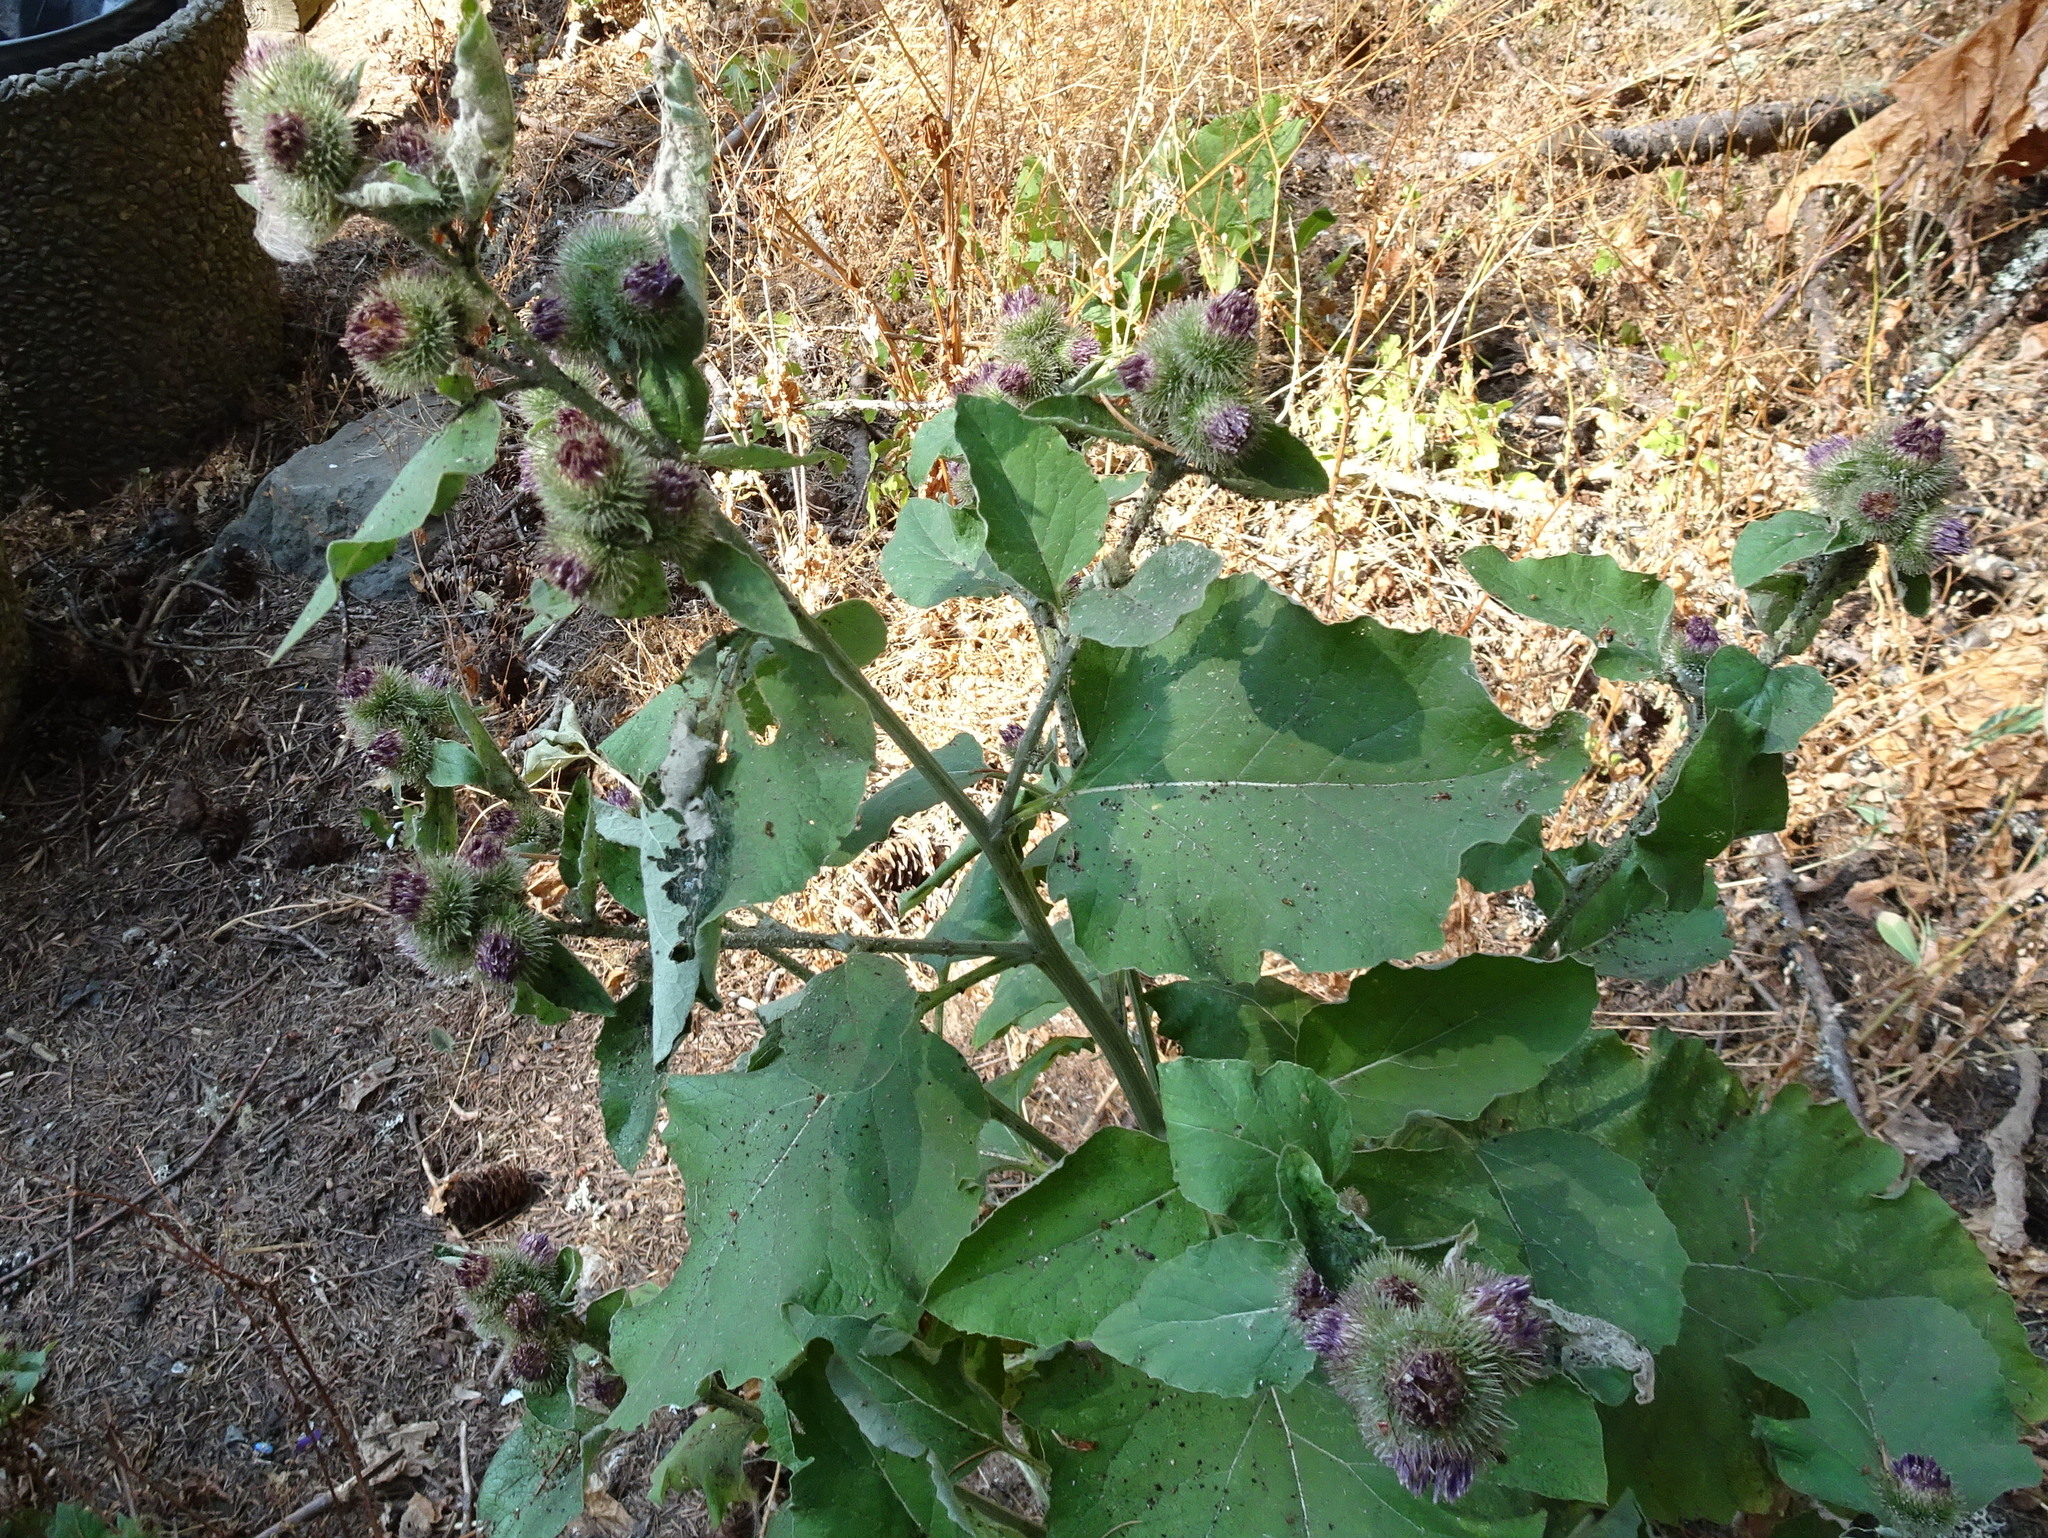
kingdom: Plantae
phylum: Tracheophyta
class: Magnoliopsida
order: Asterales
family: Asteraceae
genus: Arctium
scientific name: Arctium minus
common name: Lesser burdock
